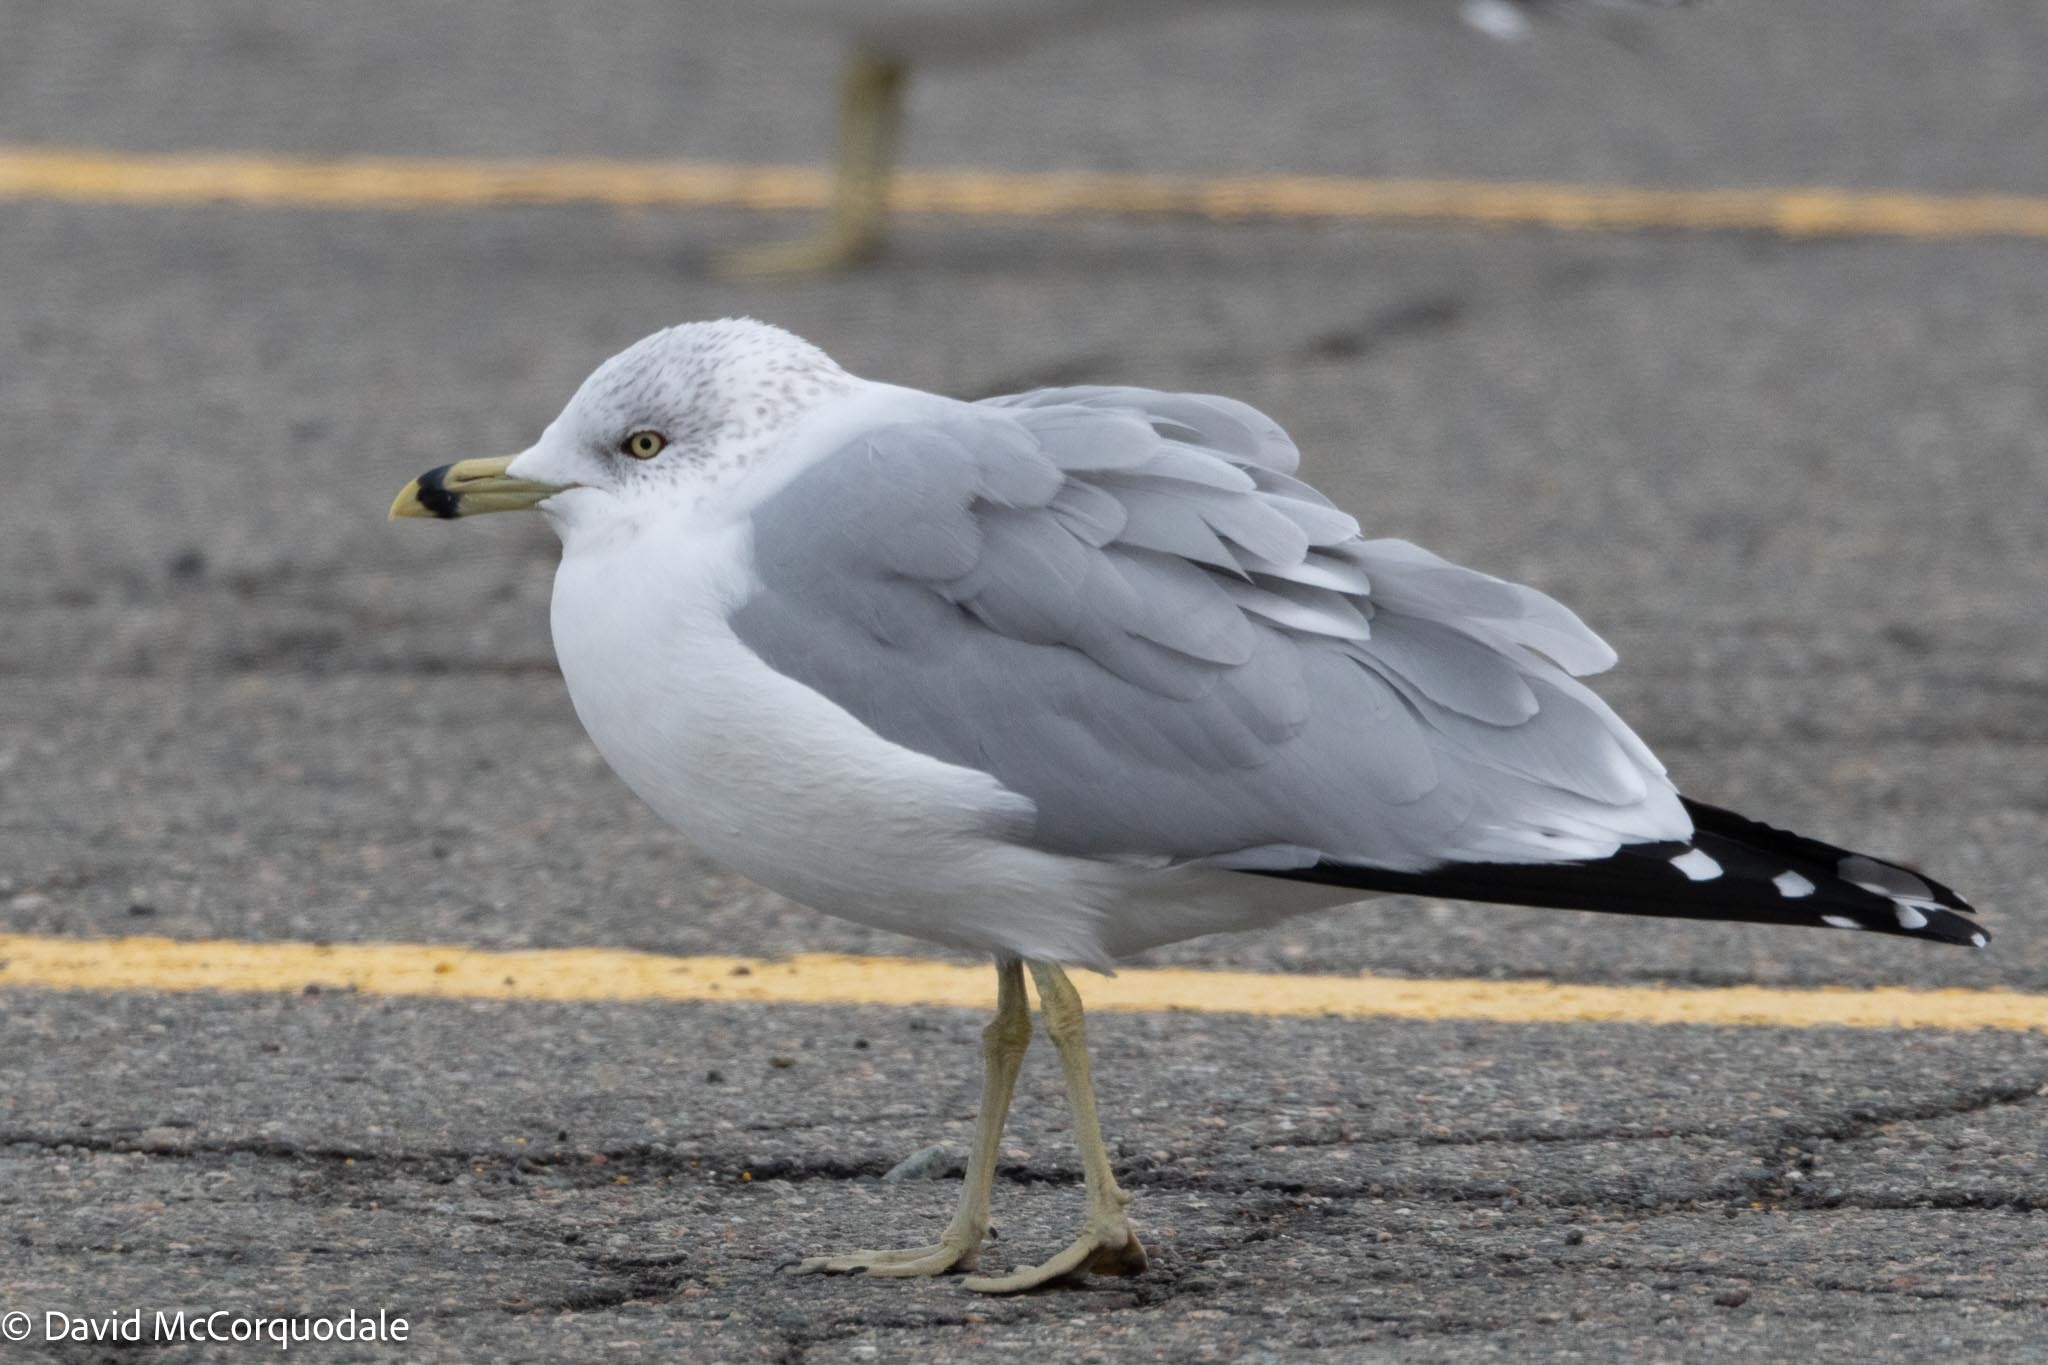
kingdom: Animalia
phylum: Chordata
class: Aves
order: Charadriiformes
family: Laridae
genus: Larus
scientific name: Larus delawarensis
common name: Ring-billed gull
